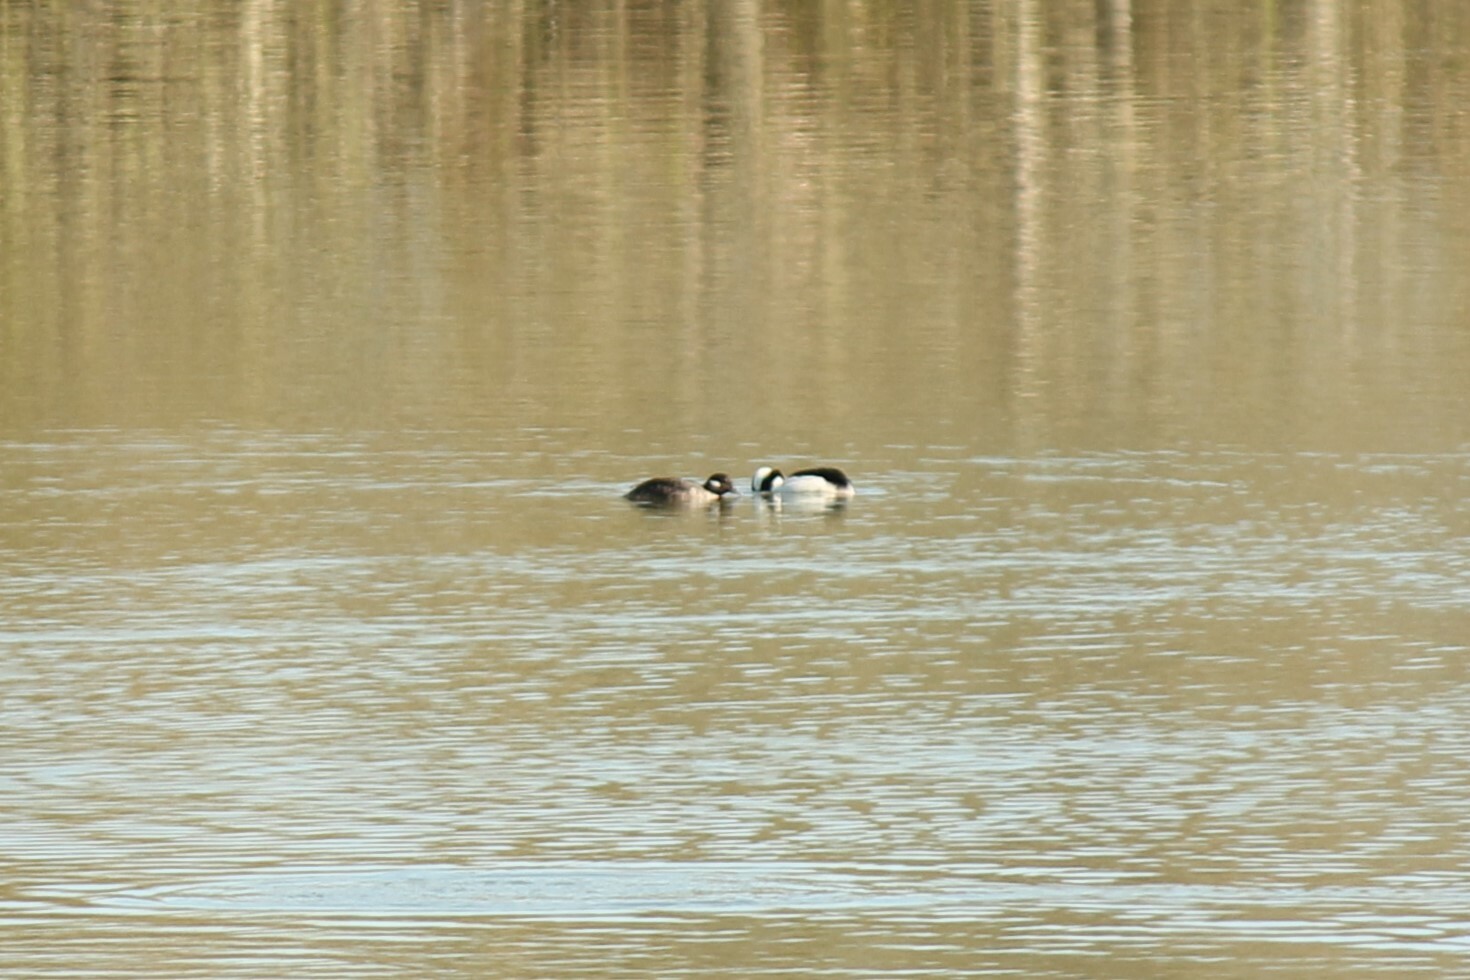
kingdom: Animalia
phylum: Chordata
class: Aves
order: Anseriformes
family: Anatidae
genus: Bucephala
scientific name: Bucephala albeola
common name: Bufflehead
